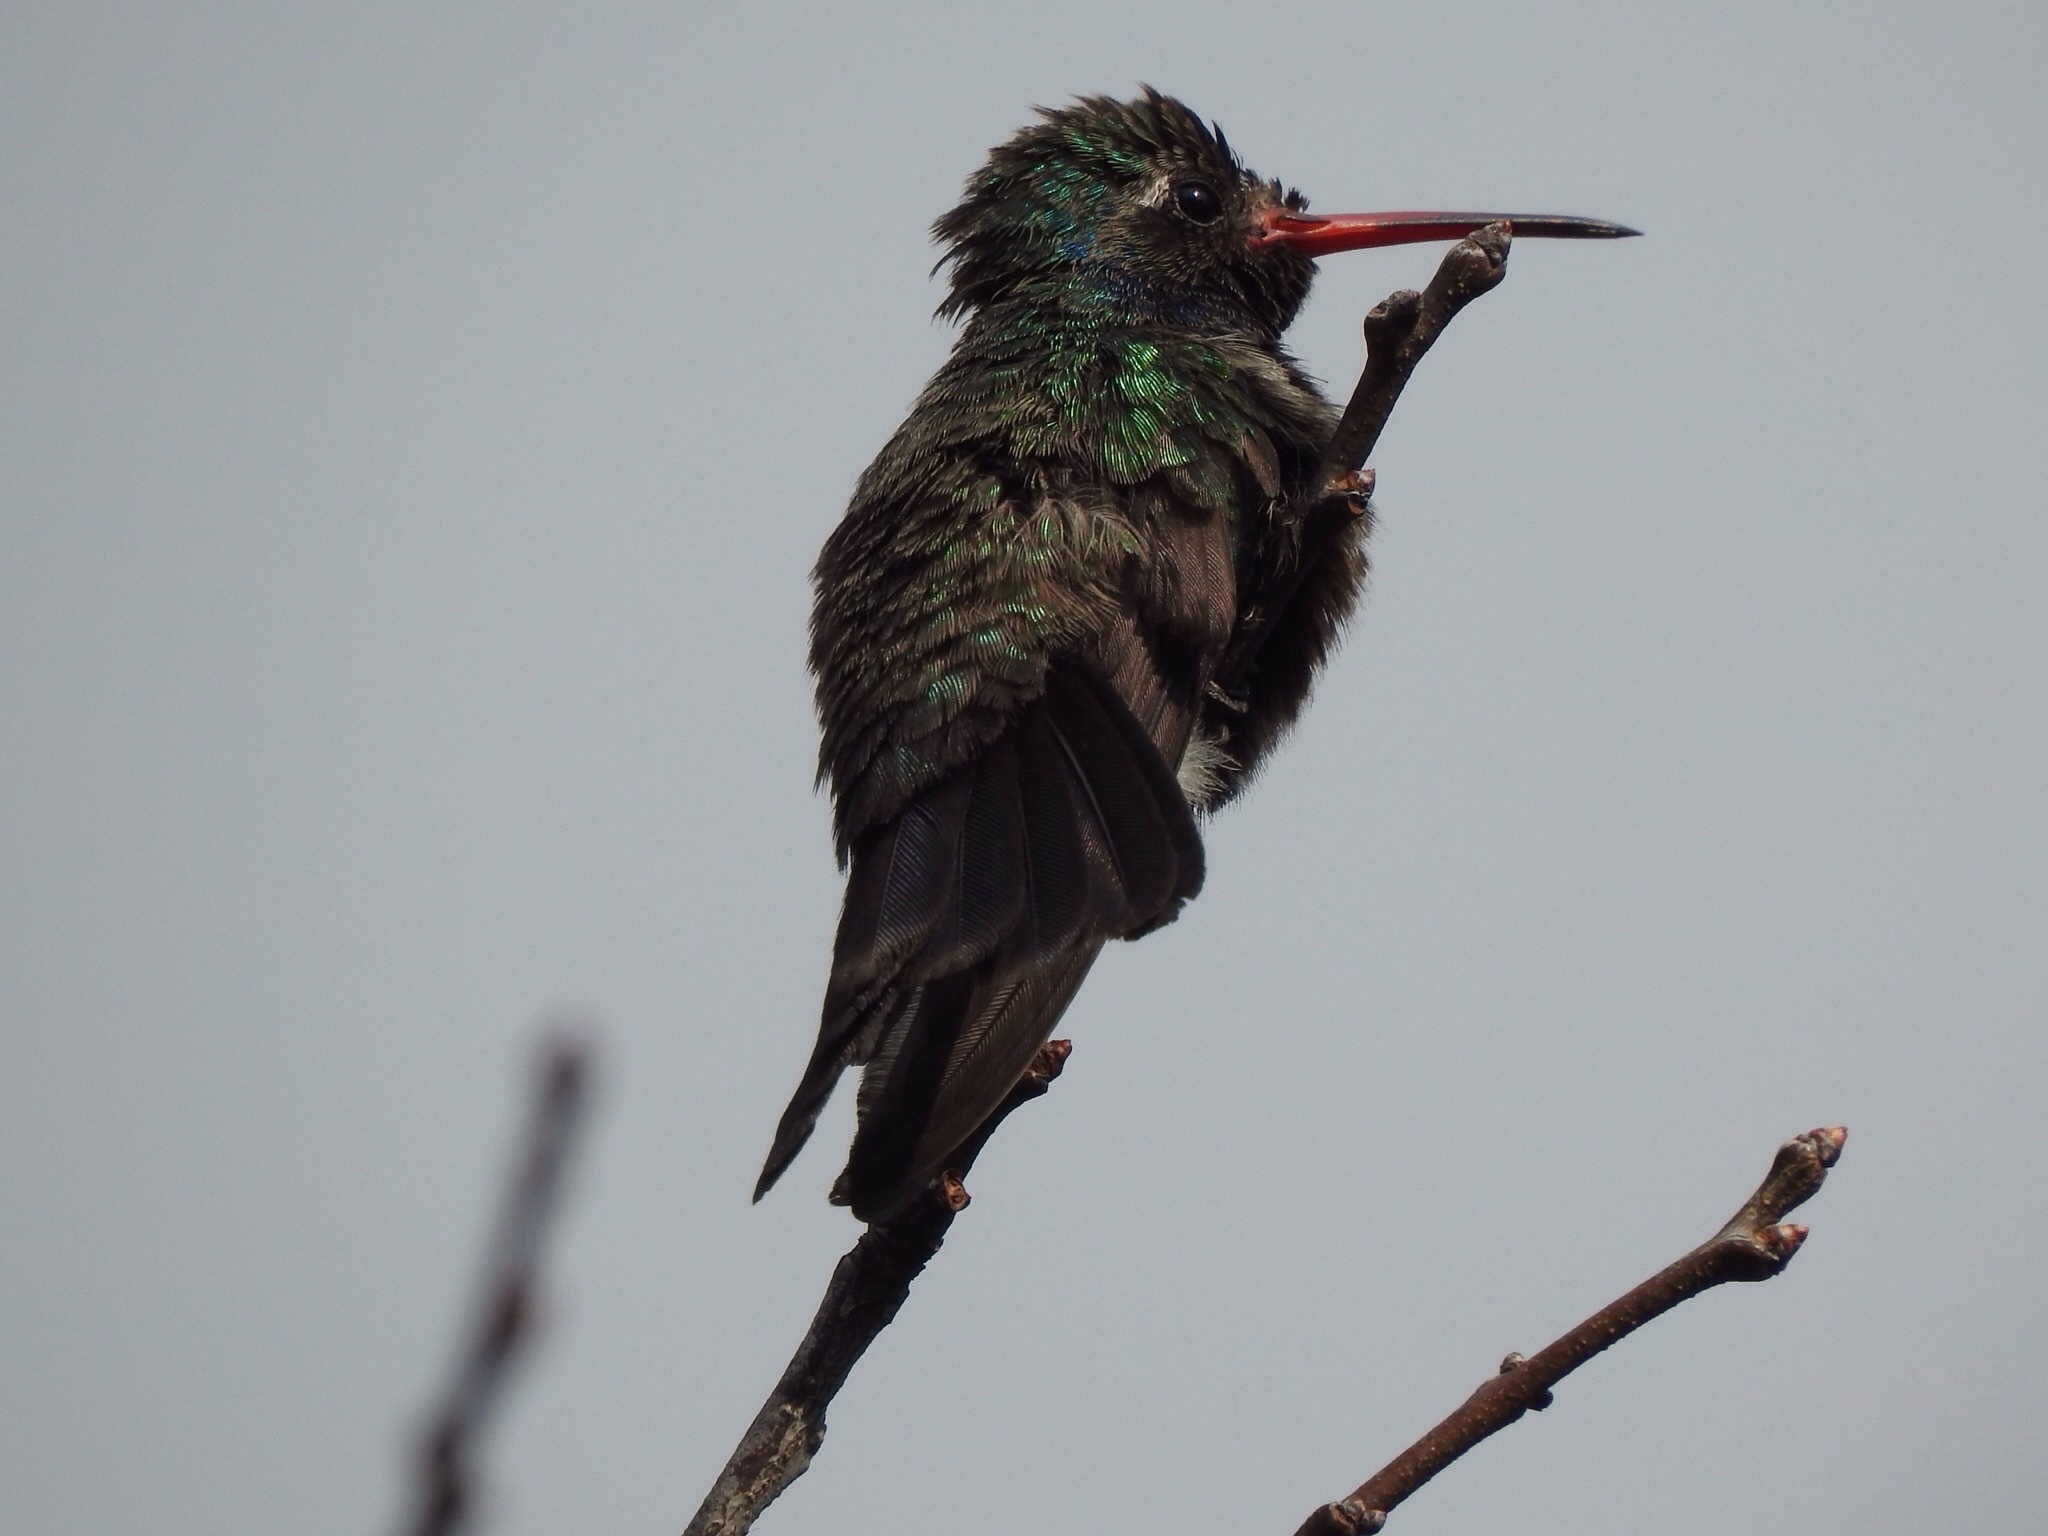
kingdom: Animalia
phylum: Chordata
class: Aves
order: Apodiformes
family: Trochilidae
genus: Cynanthus
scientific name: Cynanthus latirostris
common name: Broad-billed hummingbird
